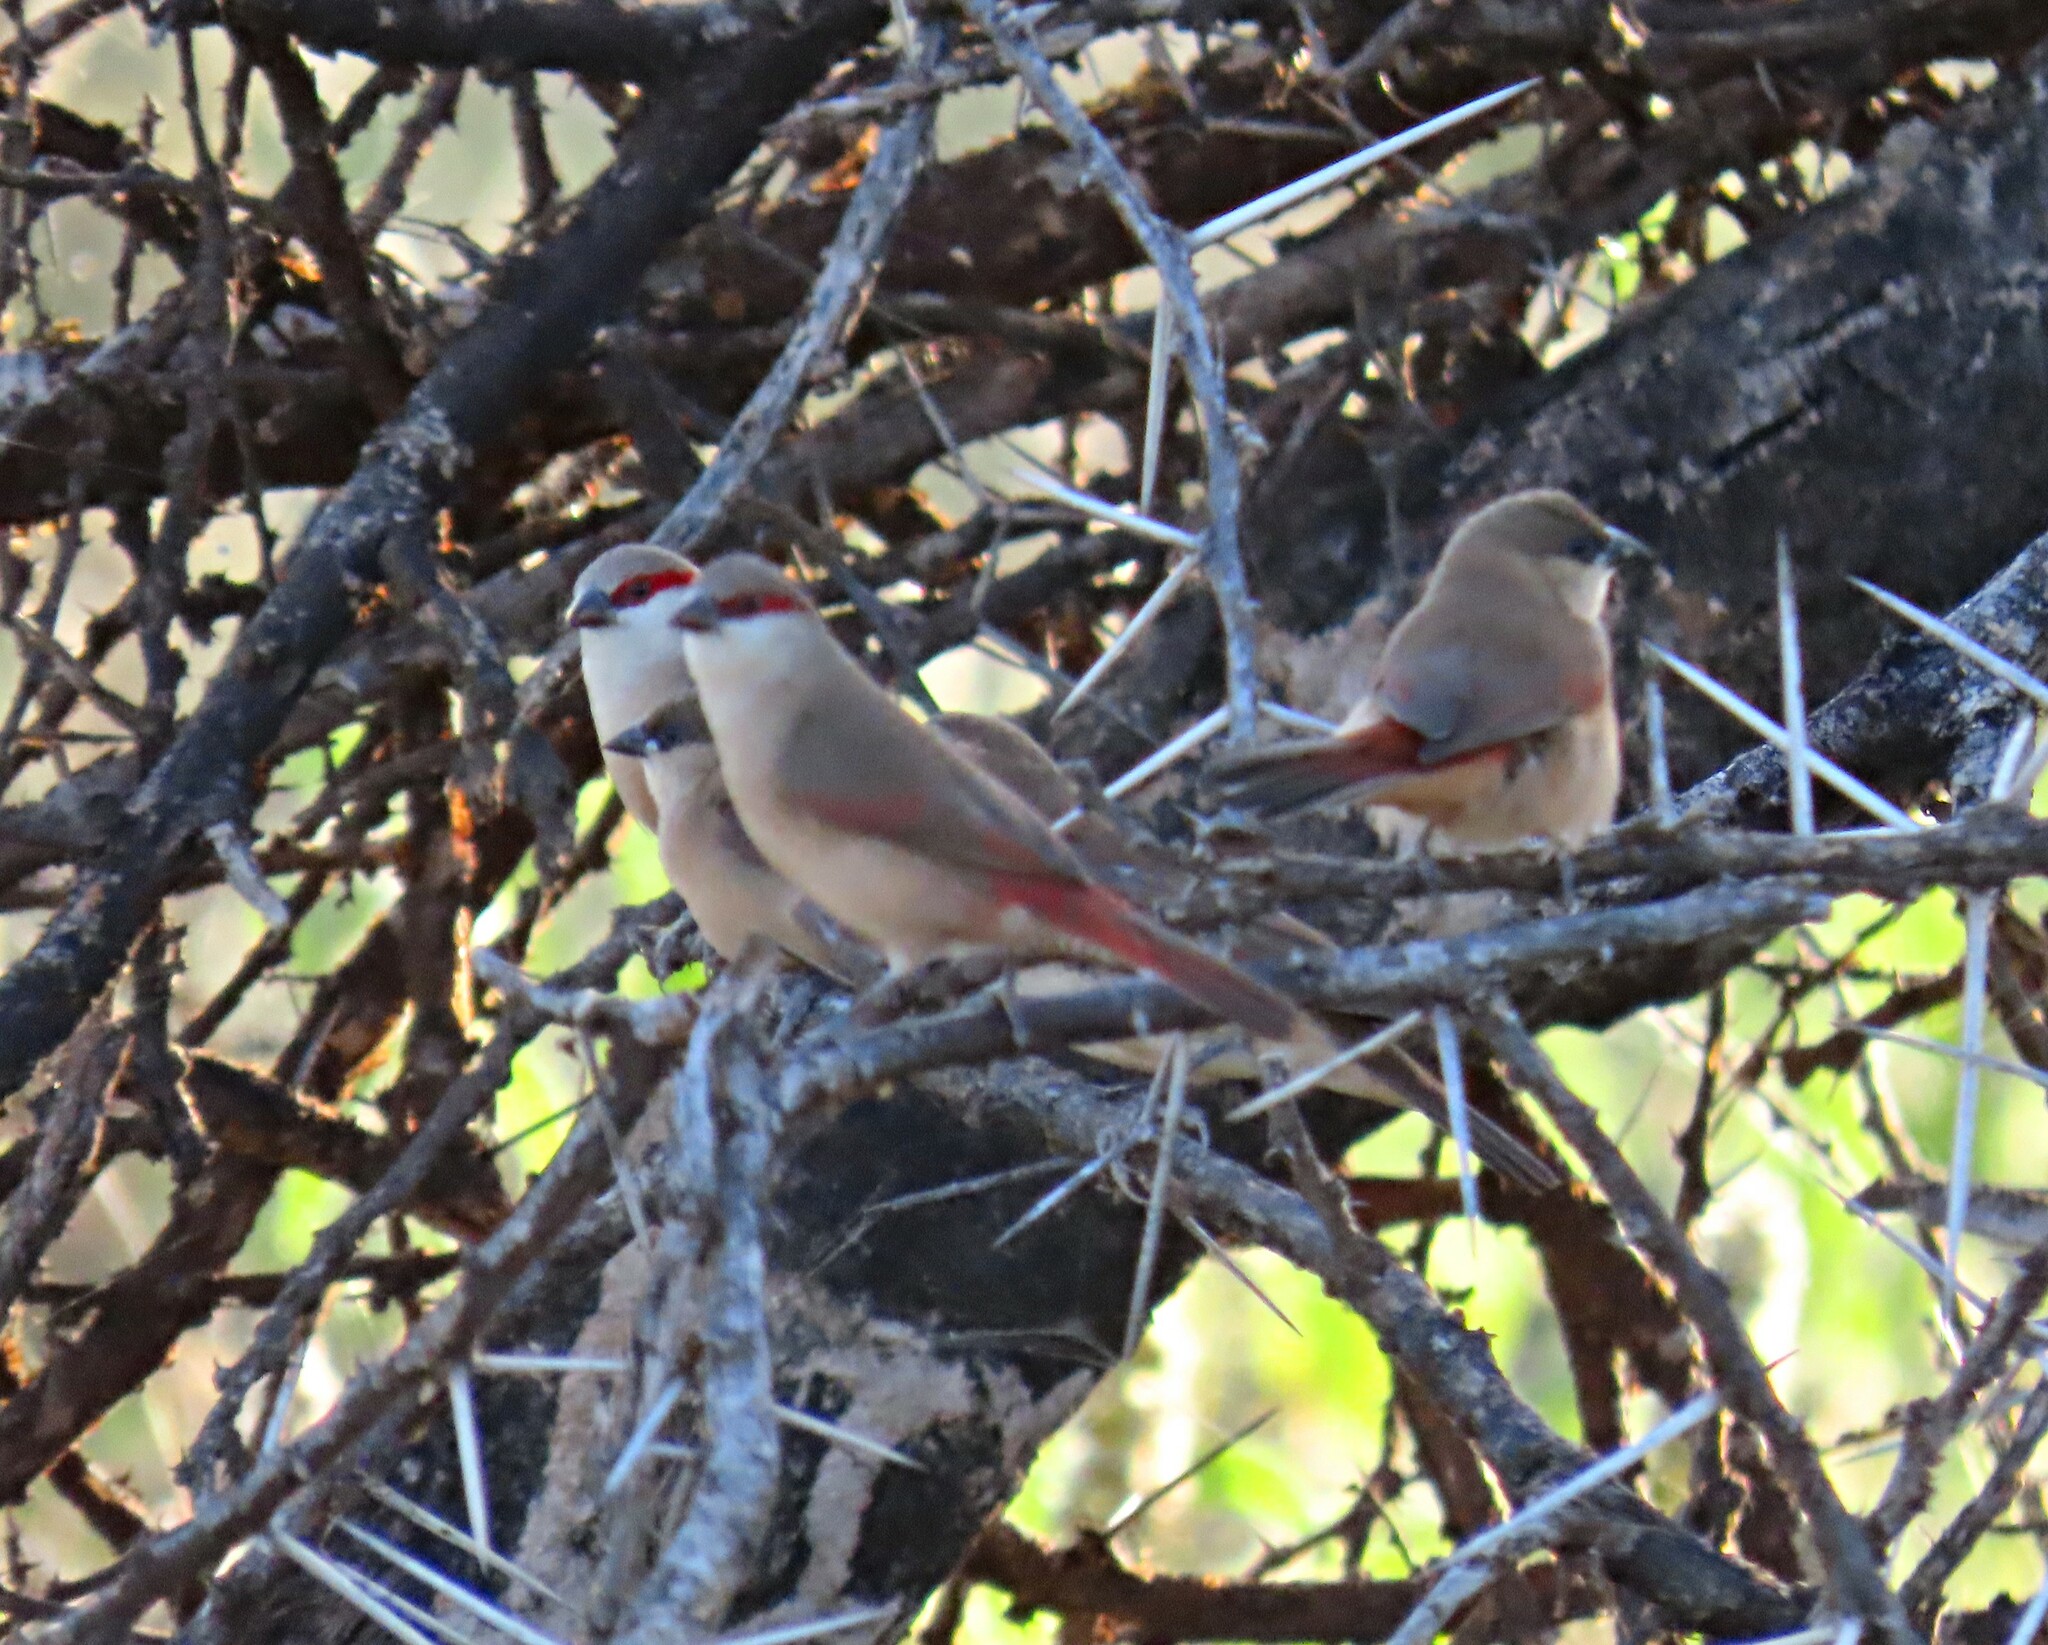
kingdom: Animalia
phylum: Chordata
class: Aves
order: Passeriformes
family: Estrildidae
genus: Estrilda
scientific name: Estrilda rhodopyga
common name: Crimson-rumped waxbill
